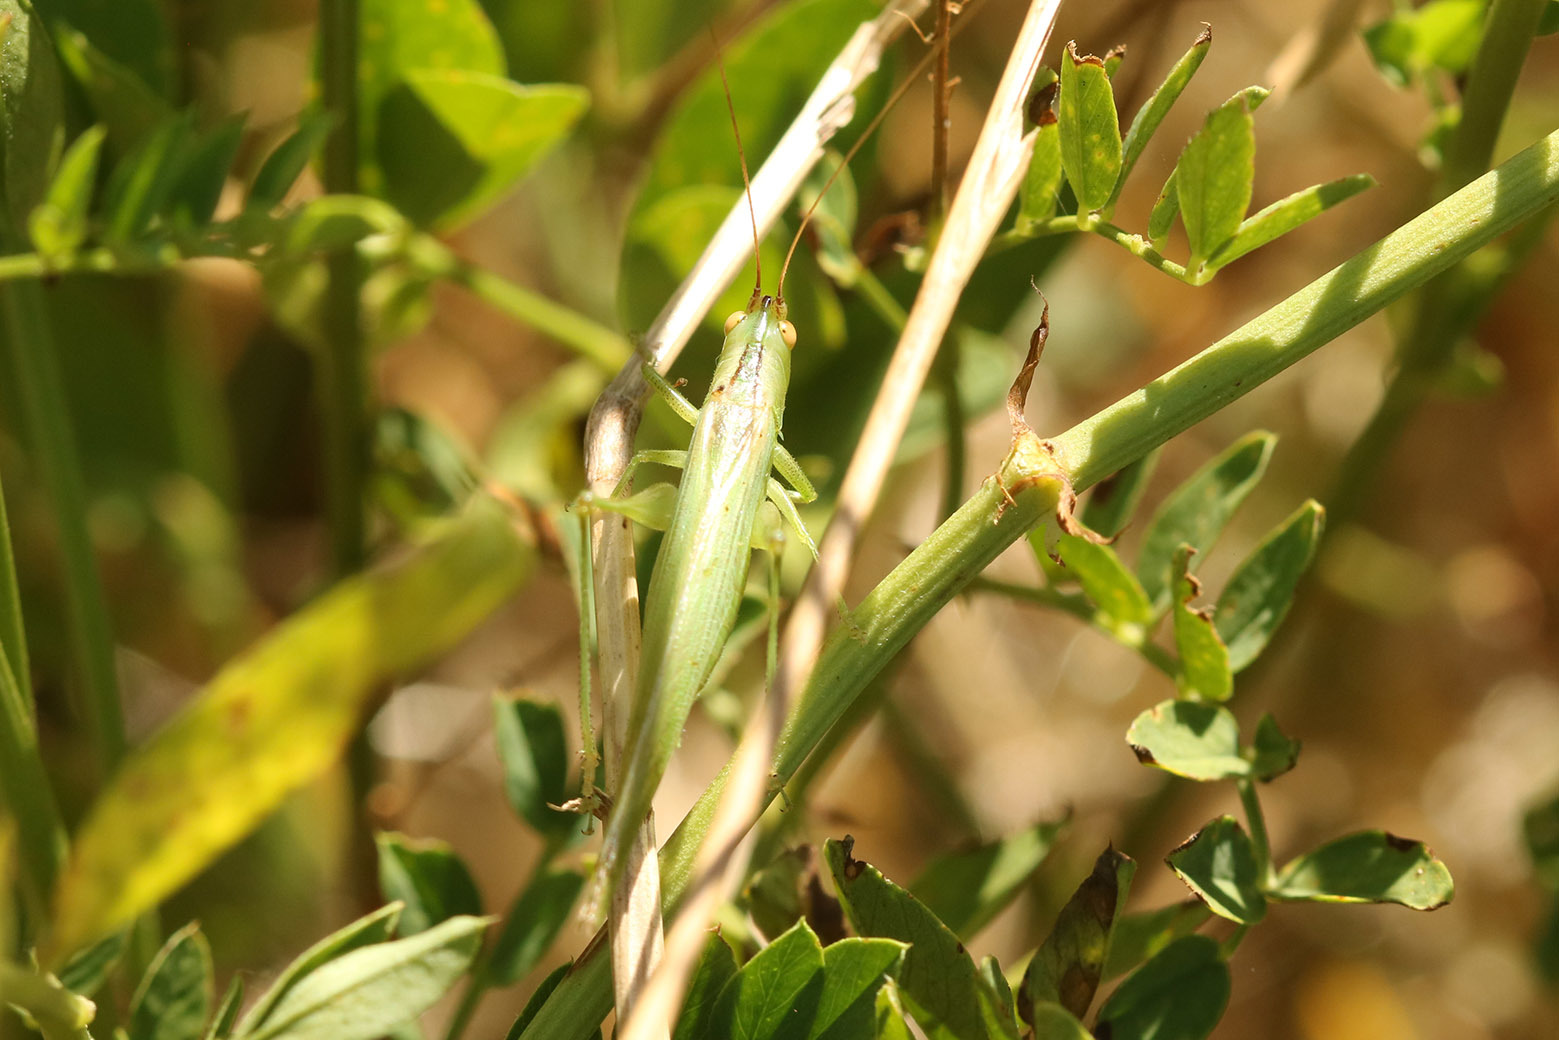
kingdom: Animalia
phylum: Arthropoda
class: Insecta
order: Orthoptera
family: Tettigoniidae
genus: Conocephalus
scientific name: Conocephalus longipes
